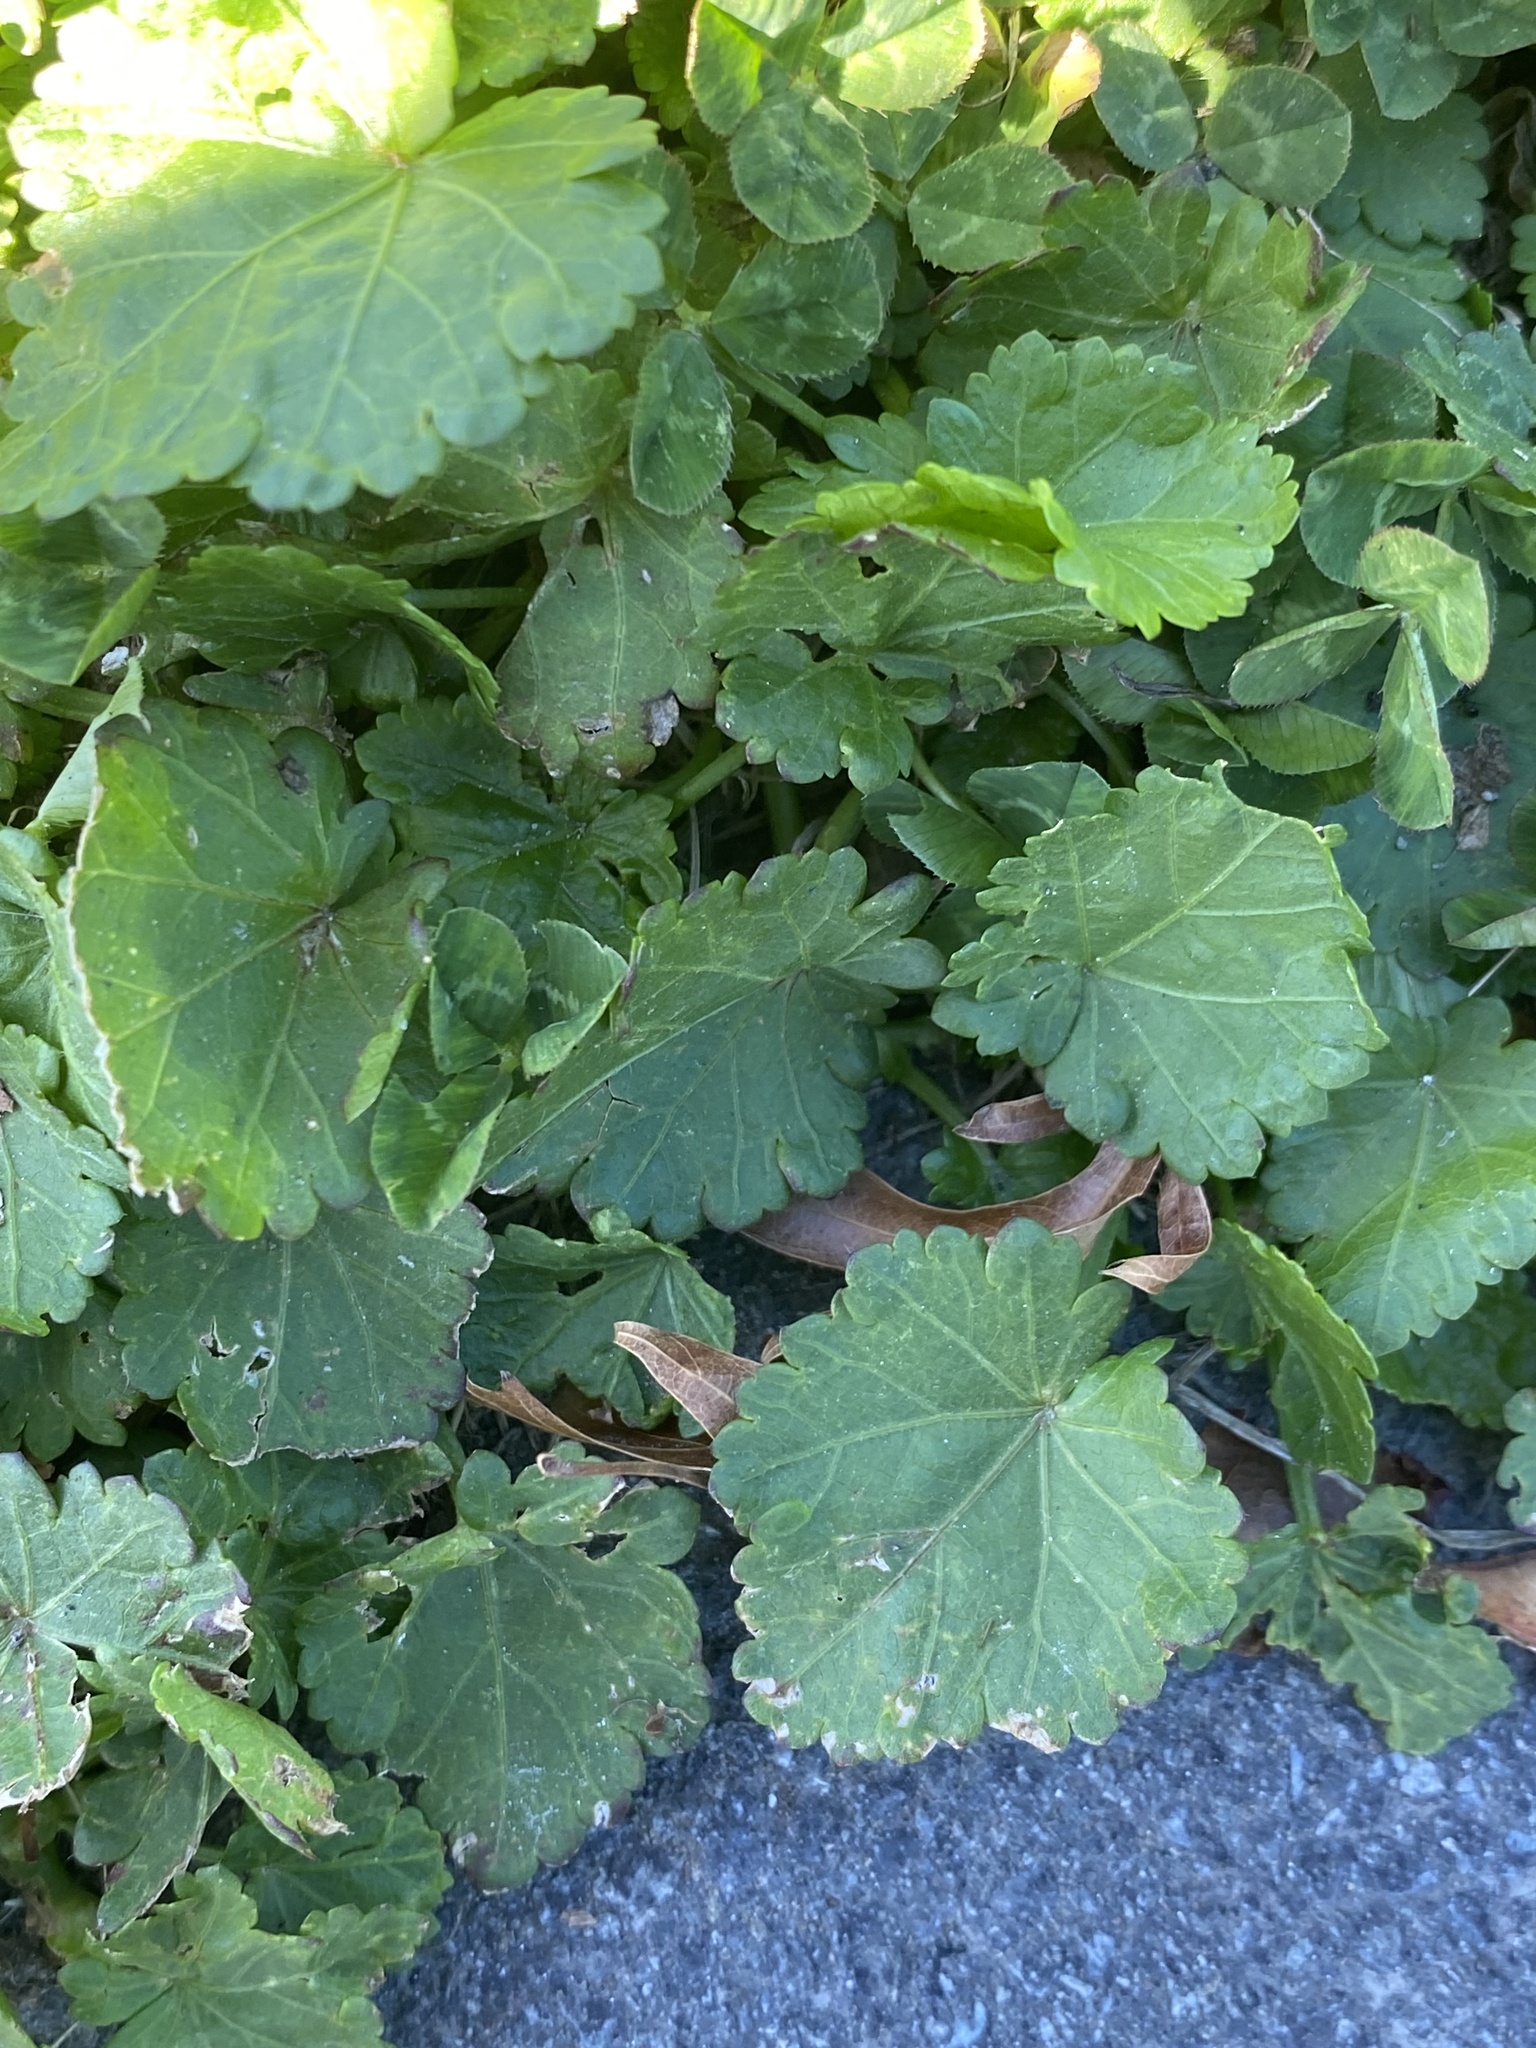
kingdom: Plantae
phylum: Tracheophyta
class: Magnoliopsida
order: Malvales
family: Malvaceae
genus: Modiola
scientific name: Modiola caroliniana
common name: Carolina bristlemallow
